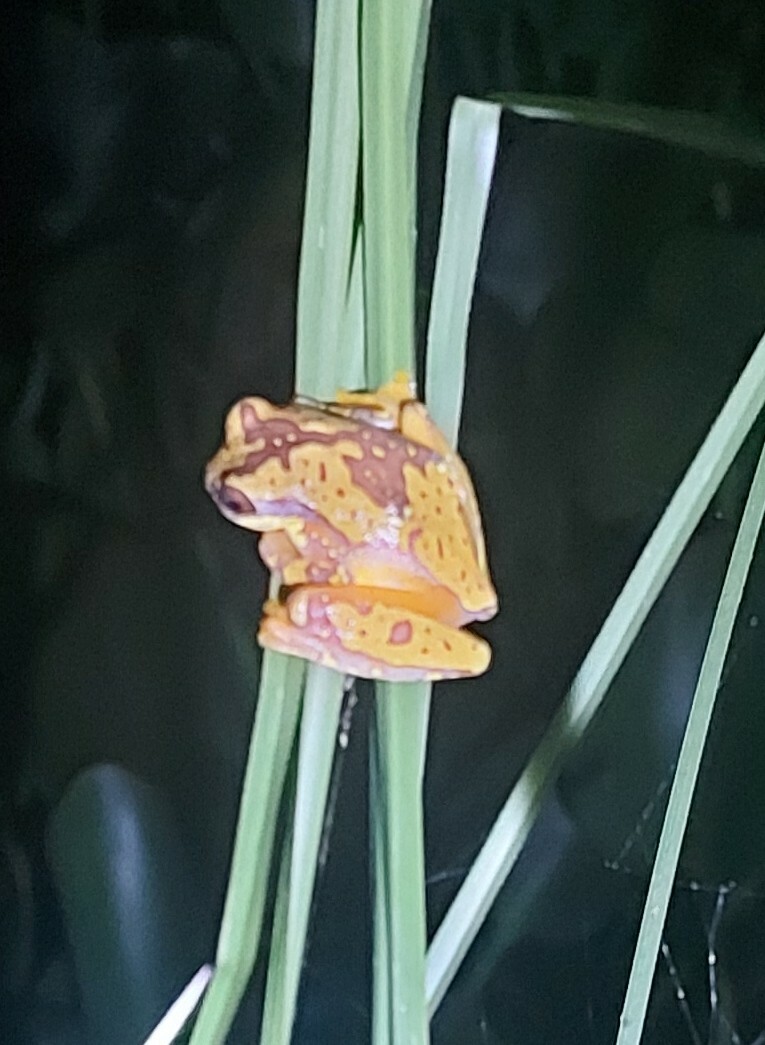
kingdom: Animalia
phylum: Chordata
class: Amphibia
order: Anura
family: Hylidae
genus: Dendropsophus
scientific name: Dendropsophus ebraccatus
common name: Hourglass treefrog
